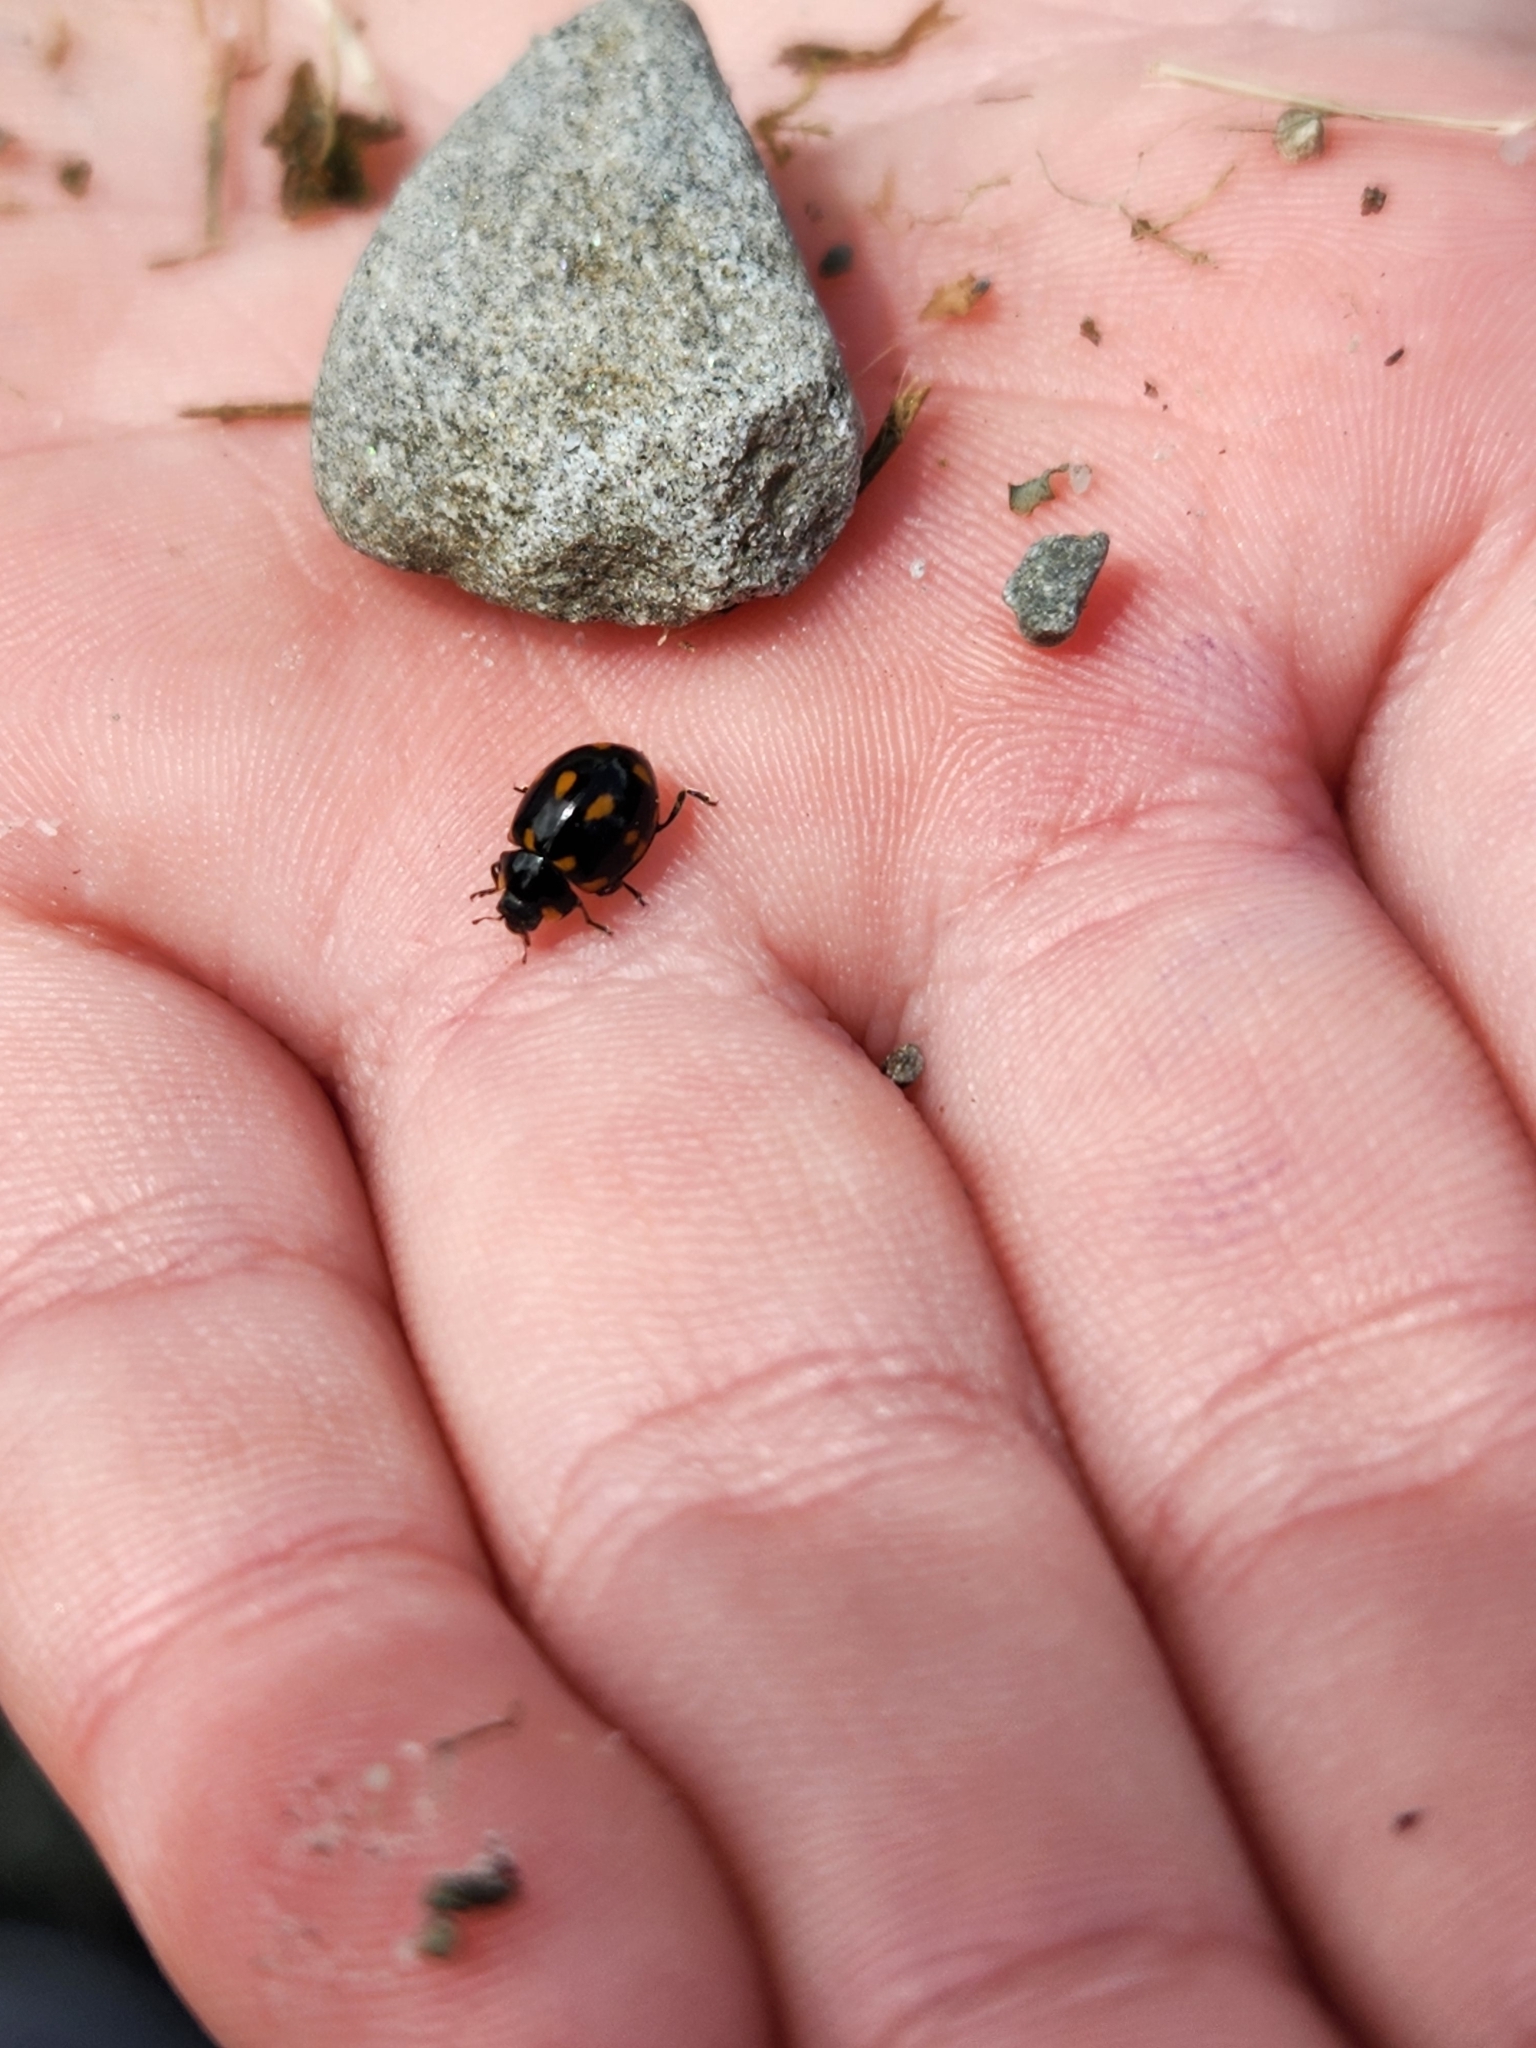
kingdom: Animalia
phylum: Arthropoda
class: Insecta
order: Coleoptera
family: Coccinellidae
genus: Coccinella
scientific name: Coccinella leonina
